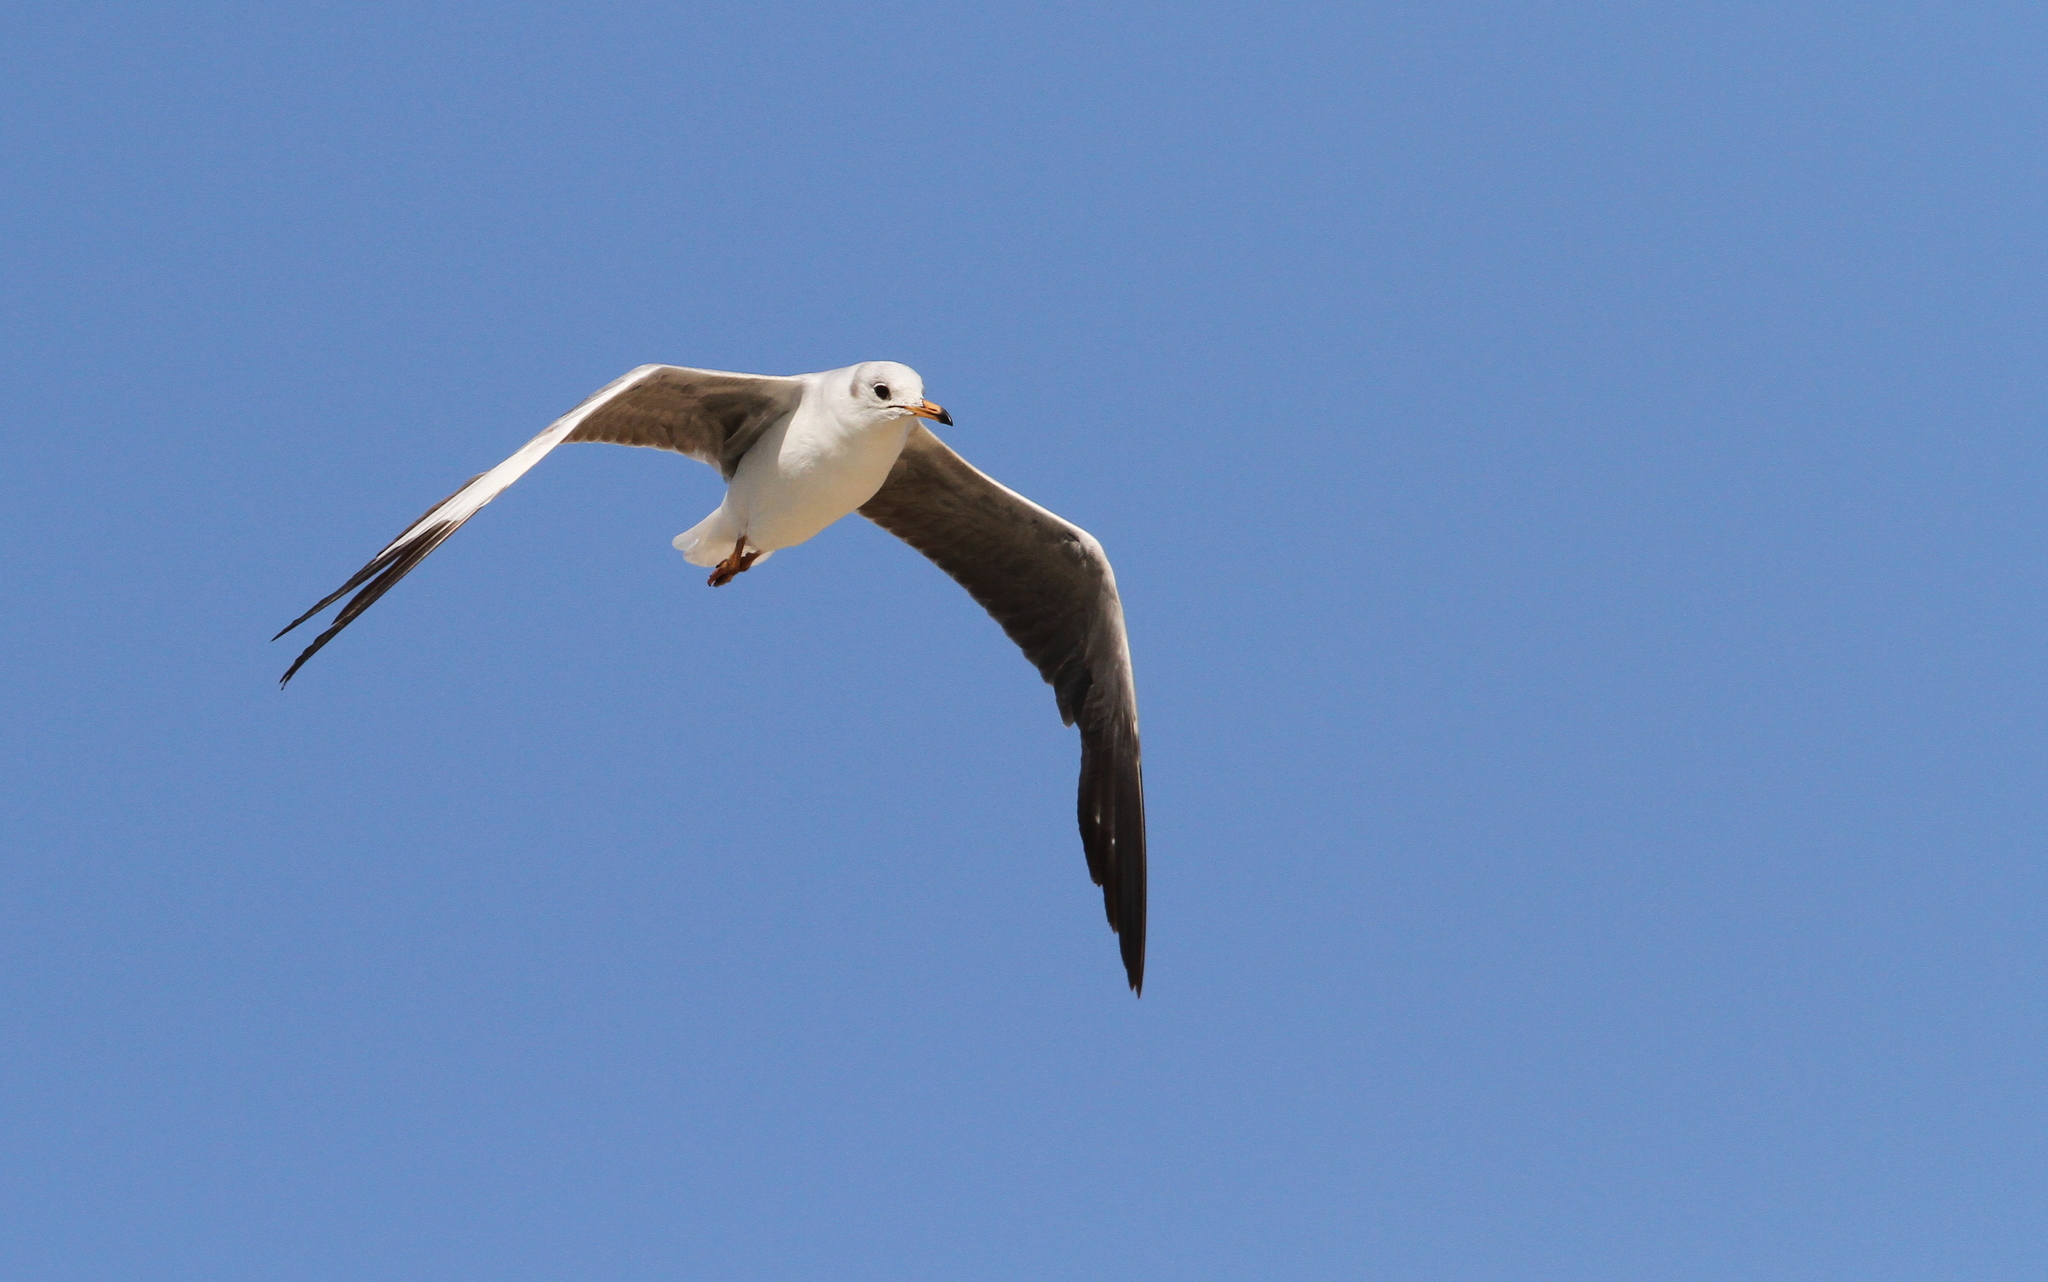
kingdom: Animalia
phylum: Chordata
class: Aves
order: Charadriiformes
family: Laridae
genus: Chroicocephalus
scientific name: Chroicocephalus cirrocephalus
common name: Grey-headed gull
